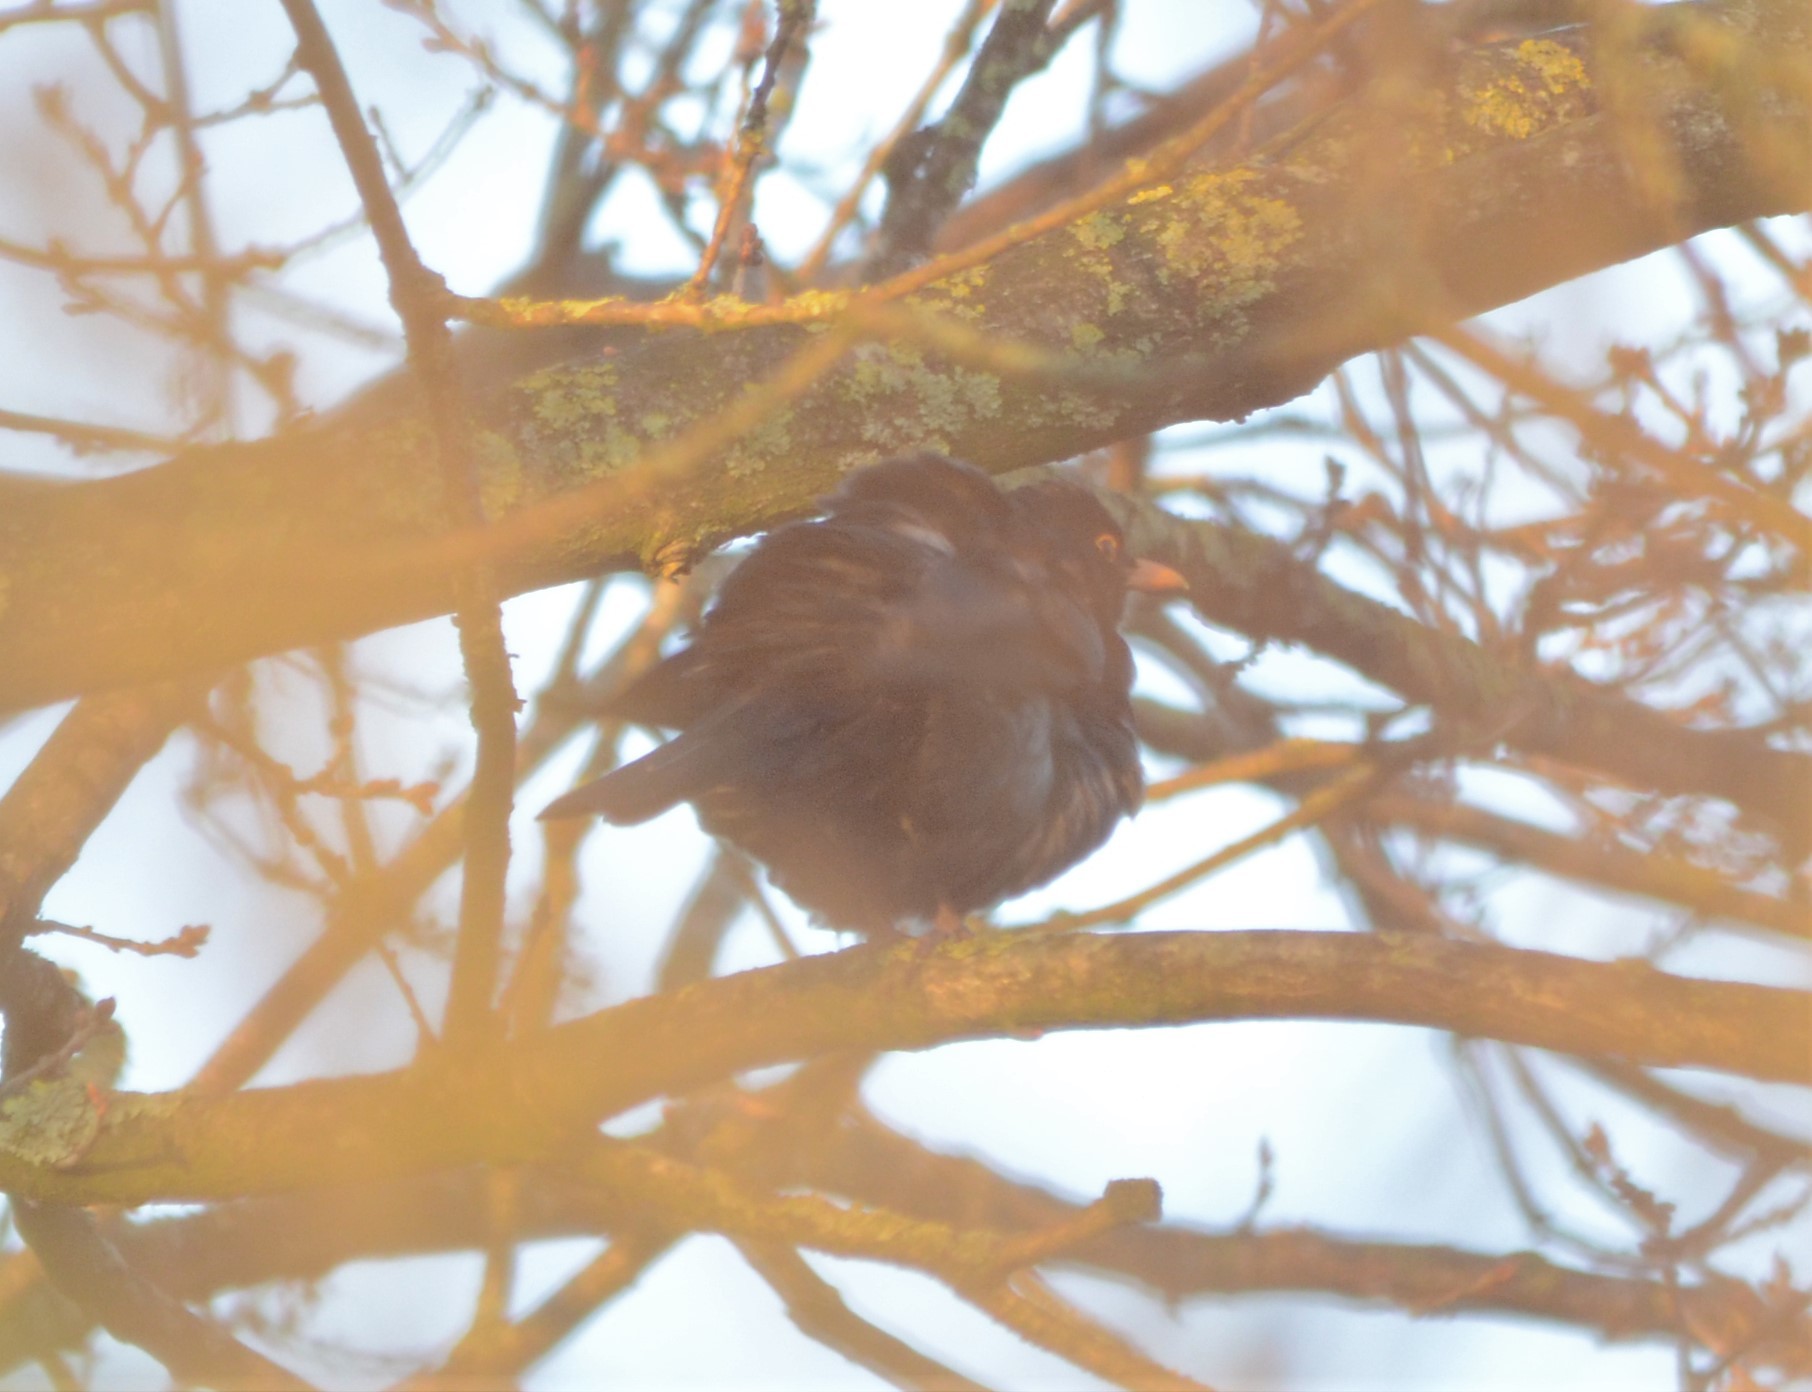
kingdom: Animalia
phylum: Chordata
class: Aves
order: Passeriformes
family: Turdidae
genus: Turdus
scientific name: Turdus merula
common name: Common blackbird
